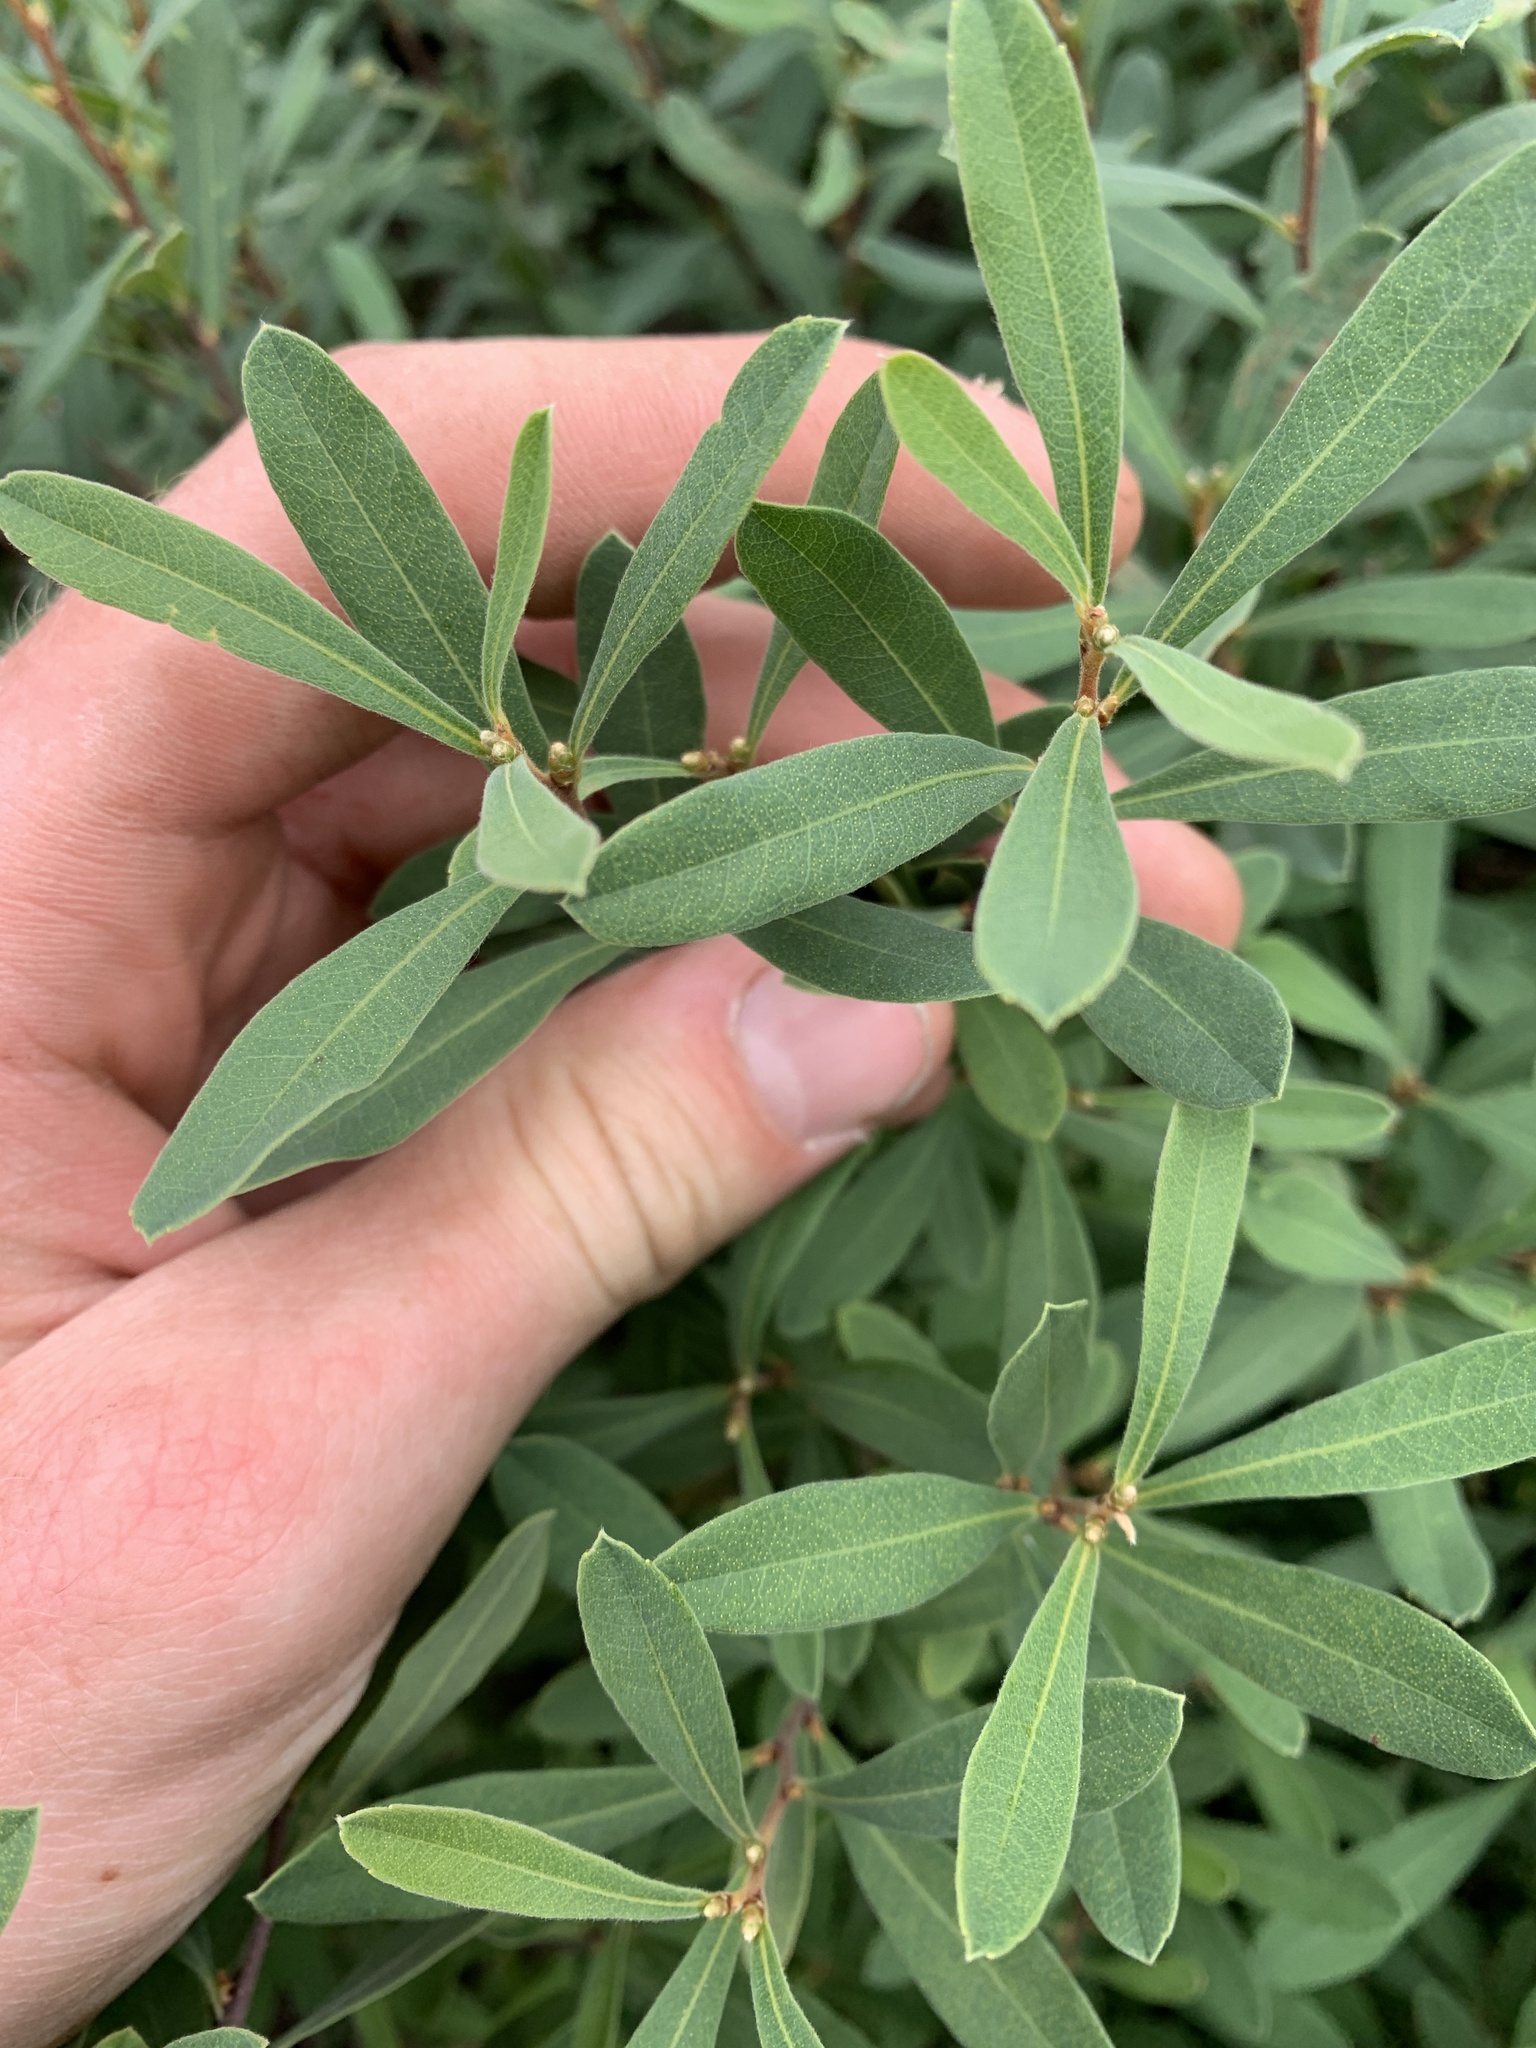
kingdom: Plantae
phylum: Tracheophyta
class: Magnoliopsida
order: Fagales
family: Myricaceae
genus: Myrica
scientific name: Myrica gale
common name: Sweet gale
